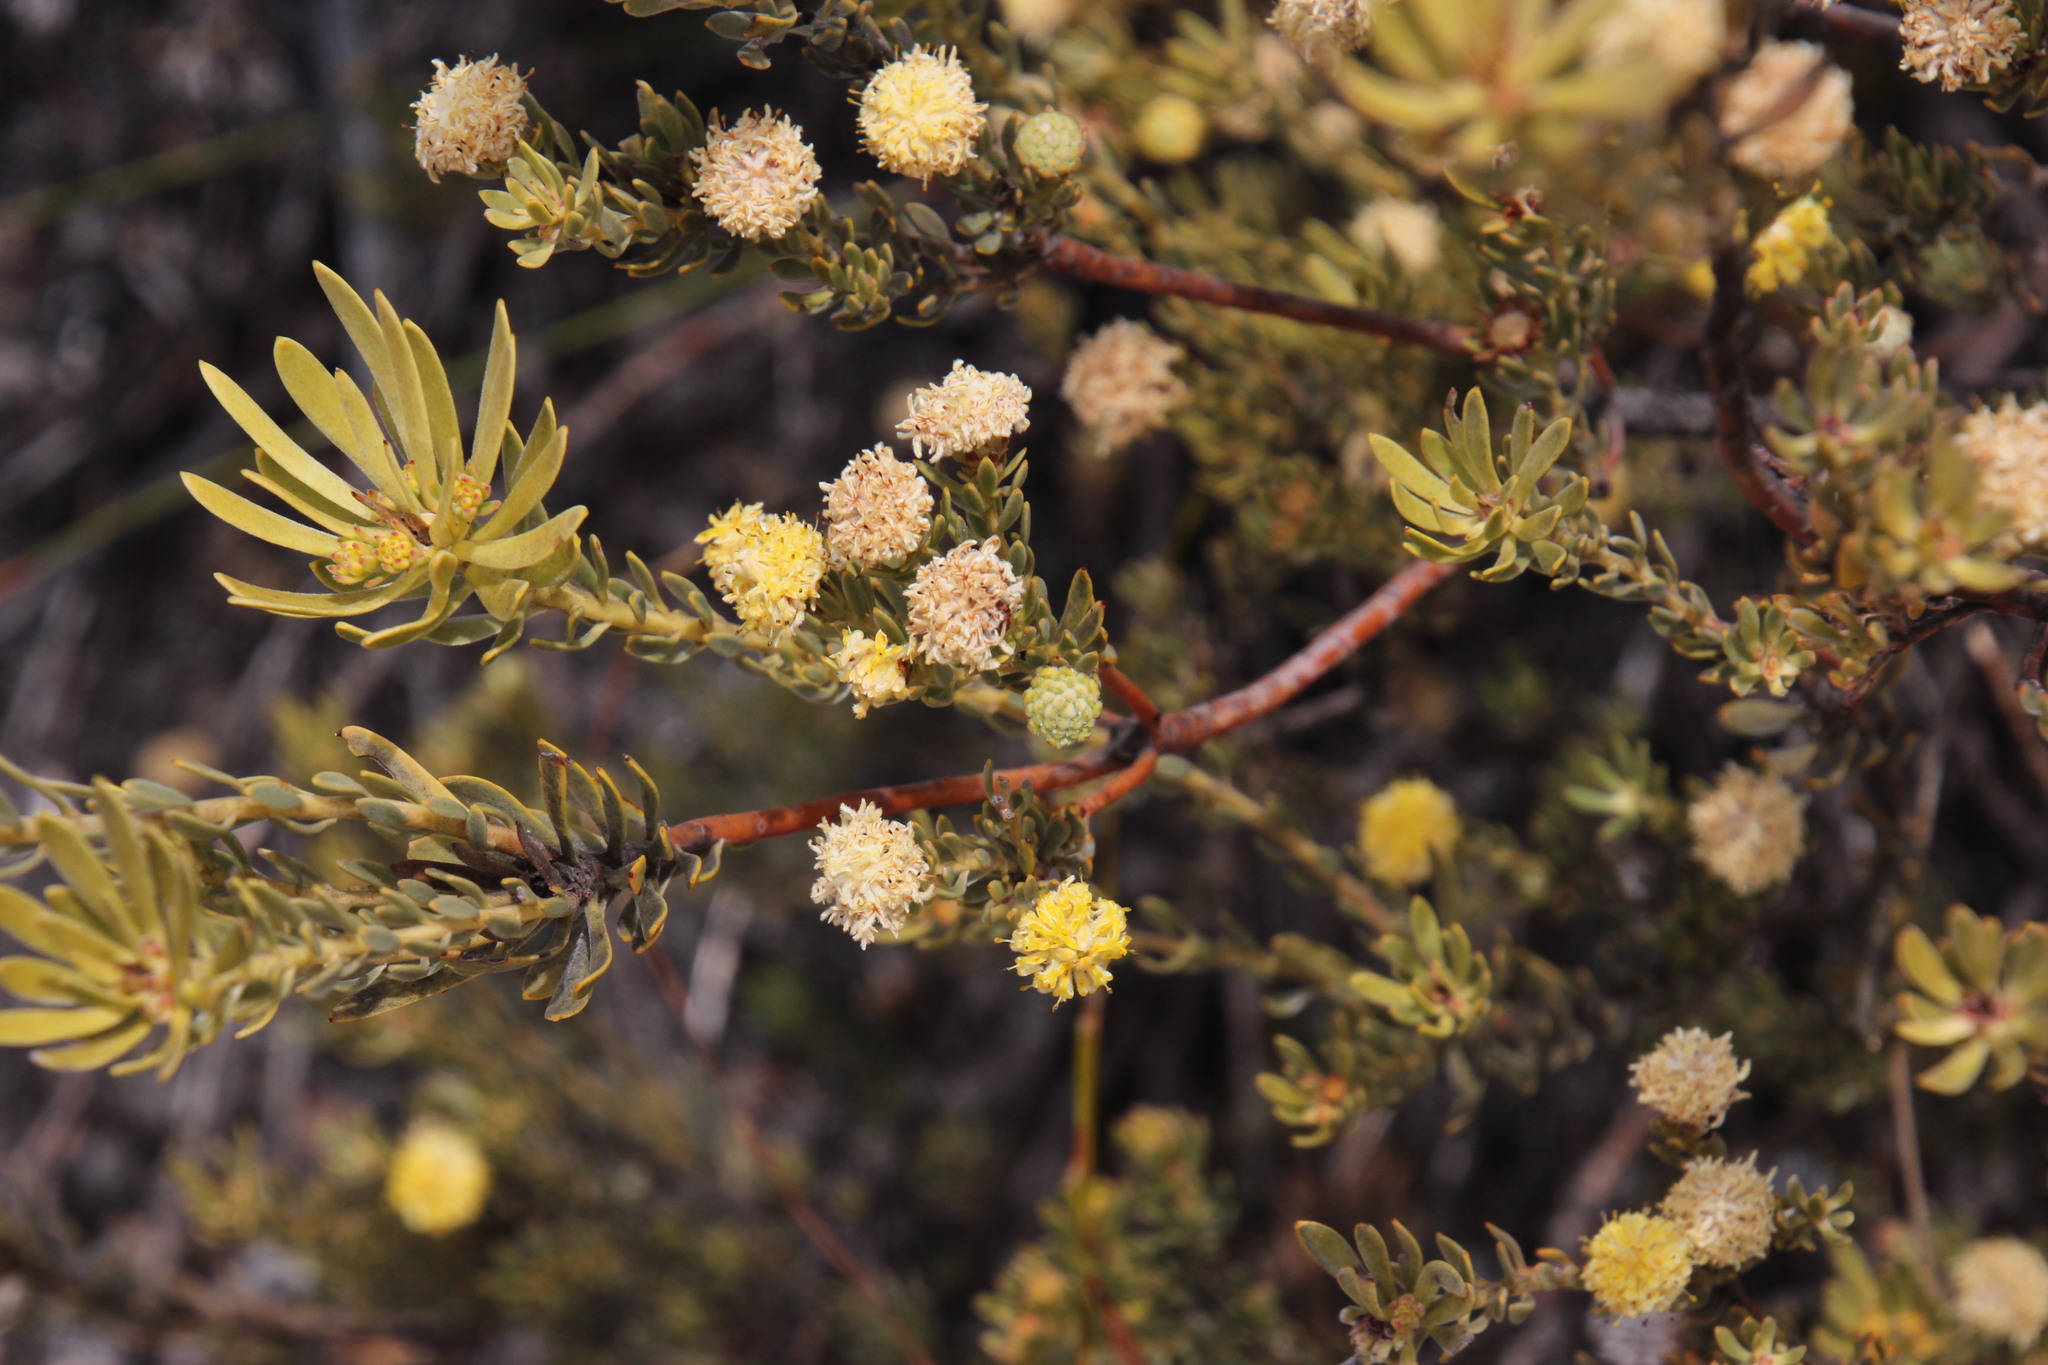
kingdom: Plantae
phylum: Tracheophyta
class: Magnoliopsida
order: Proteales
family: Proteaceae
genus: Leucadendron
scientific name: Leucadendron nitidum
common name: Bokkeveld conebush
